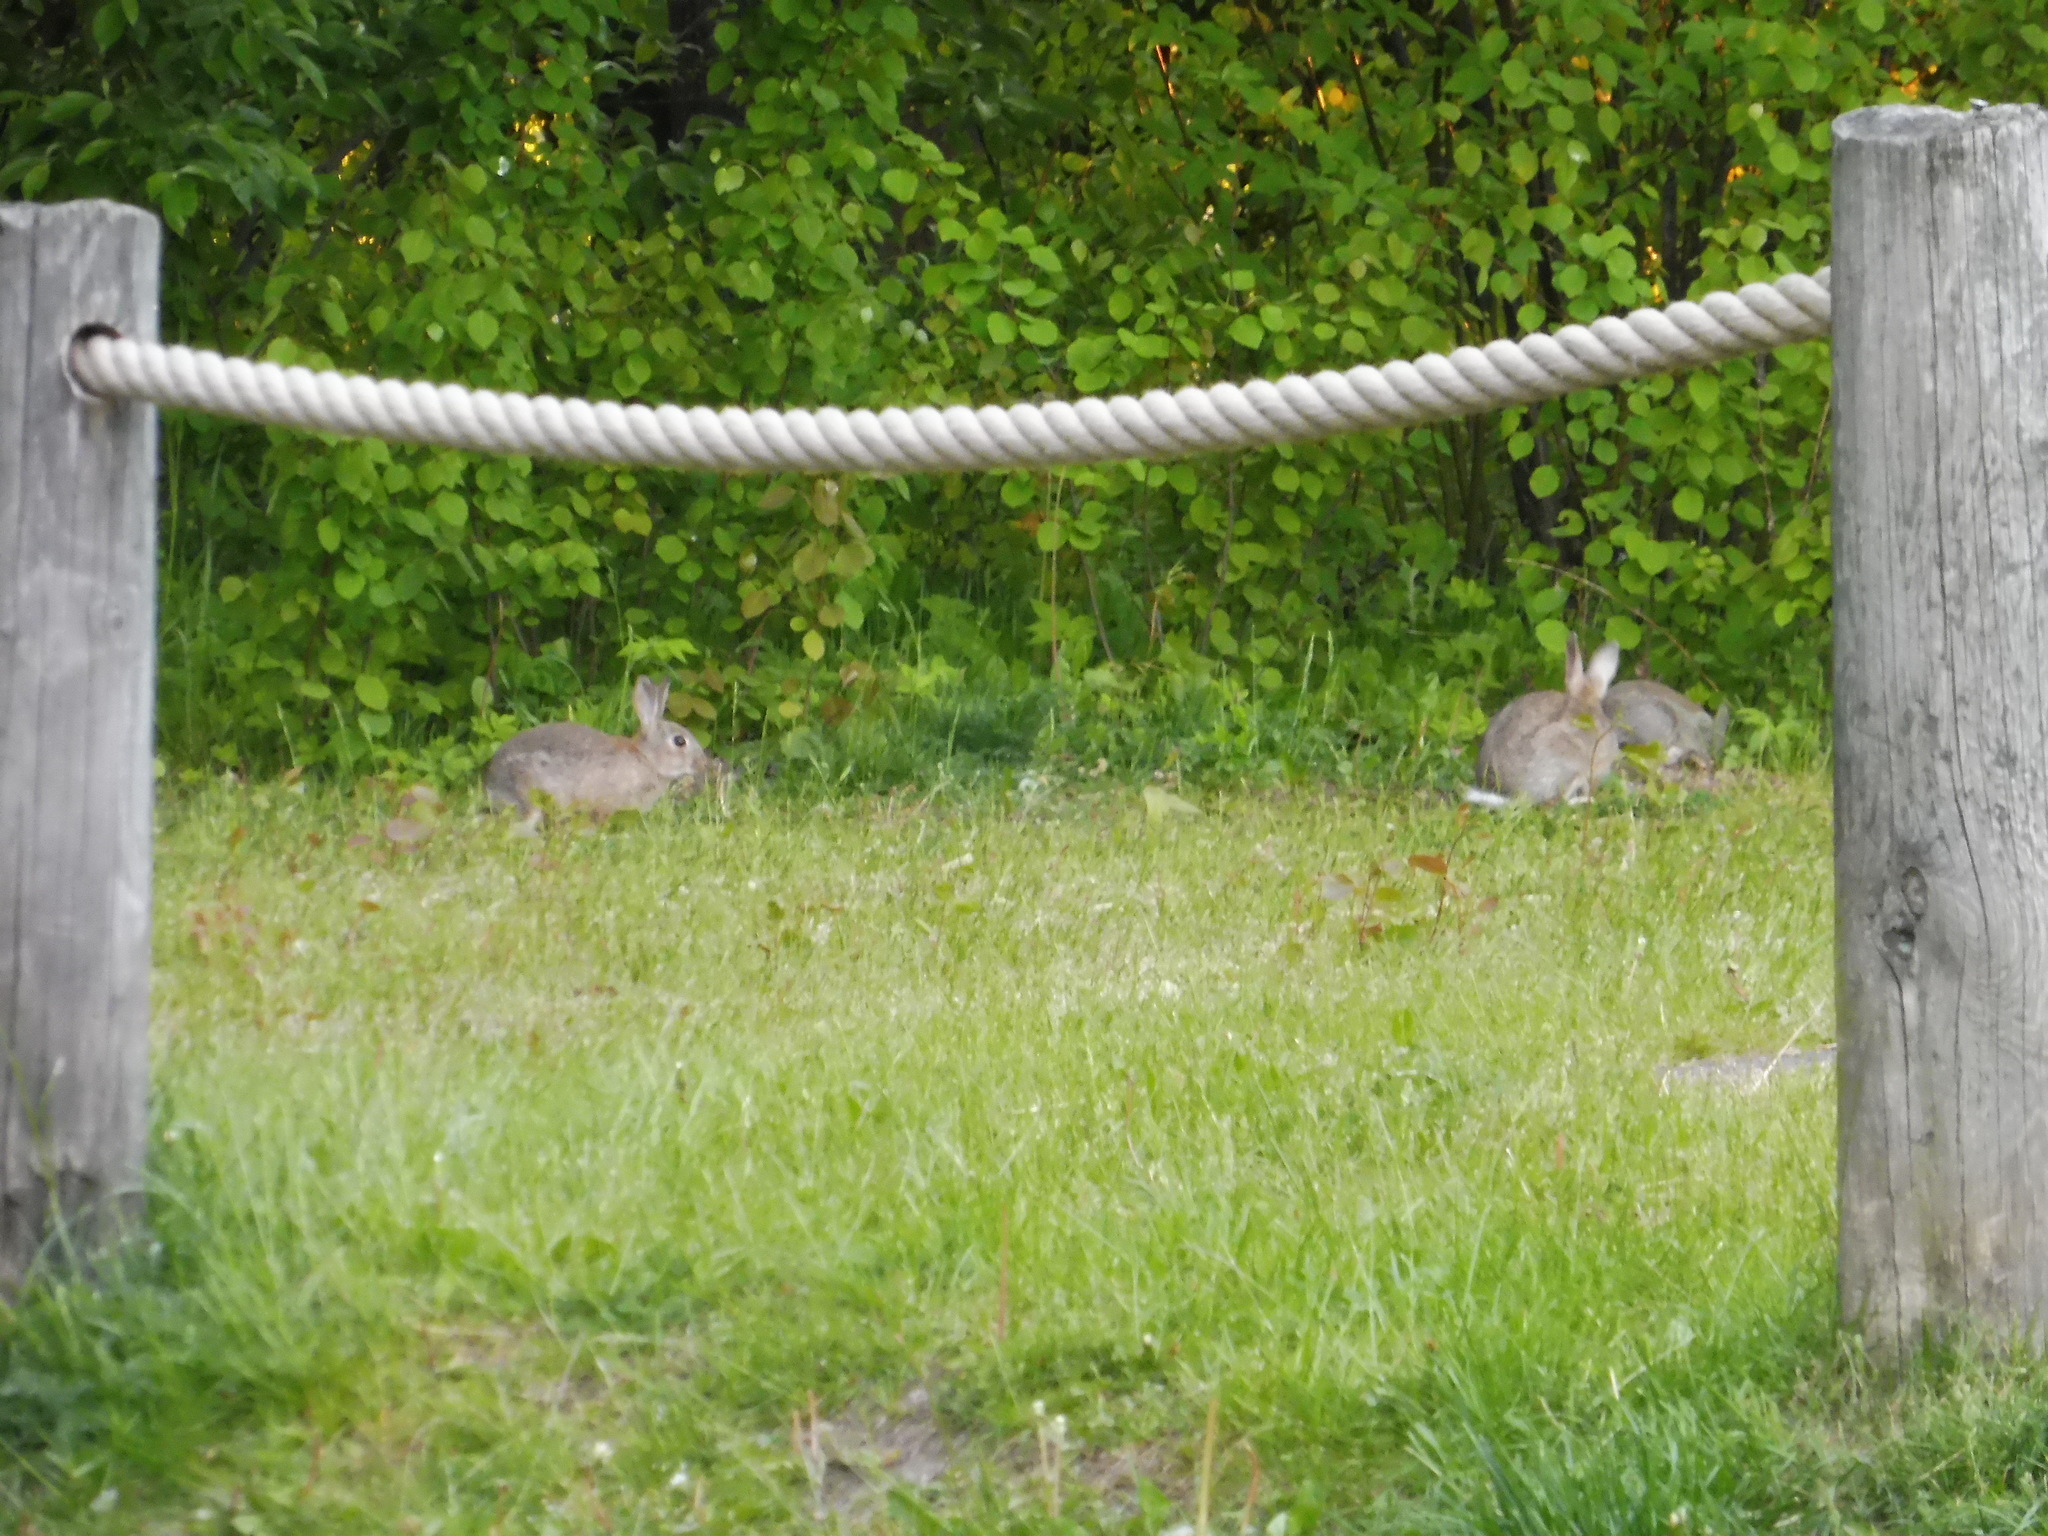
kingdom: Animalia
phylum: Chordata
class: Mammalia
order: Lagomorpha
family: Leporidae
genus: Oryctolagus
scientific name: Oryctolagus cuniculus
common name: European rabbit
